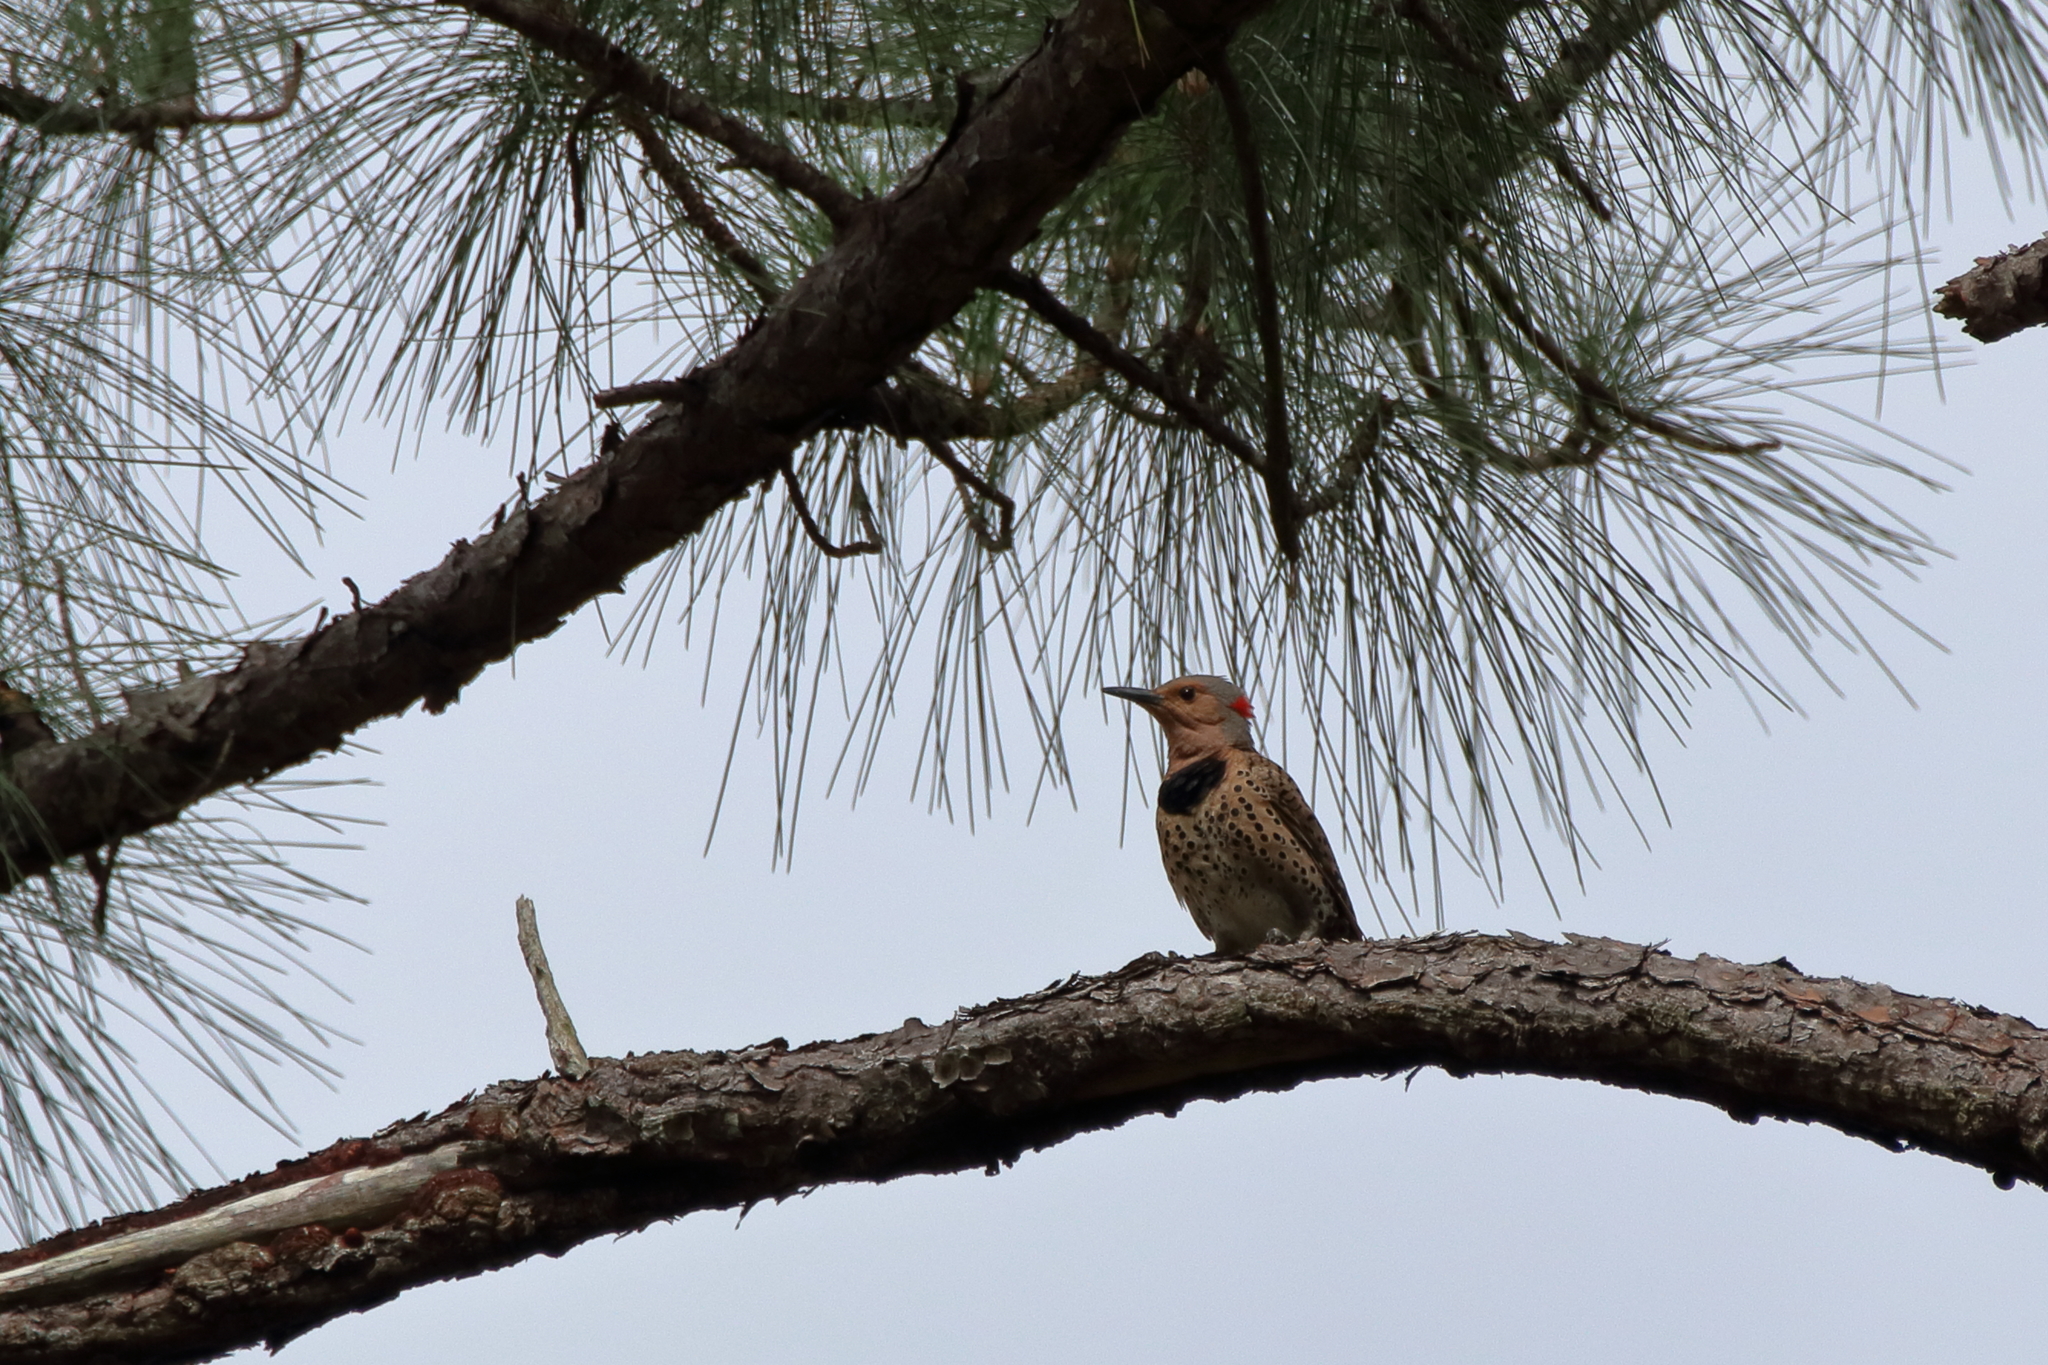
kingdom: Animalia
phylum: Chordata
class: Aves
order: Piciformes
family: Picidae
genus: Colaptes
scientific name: Colaptes auratus
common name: Northern flicker
